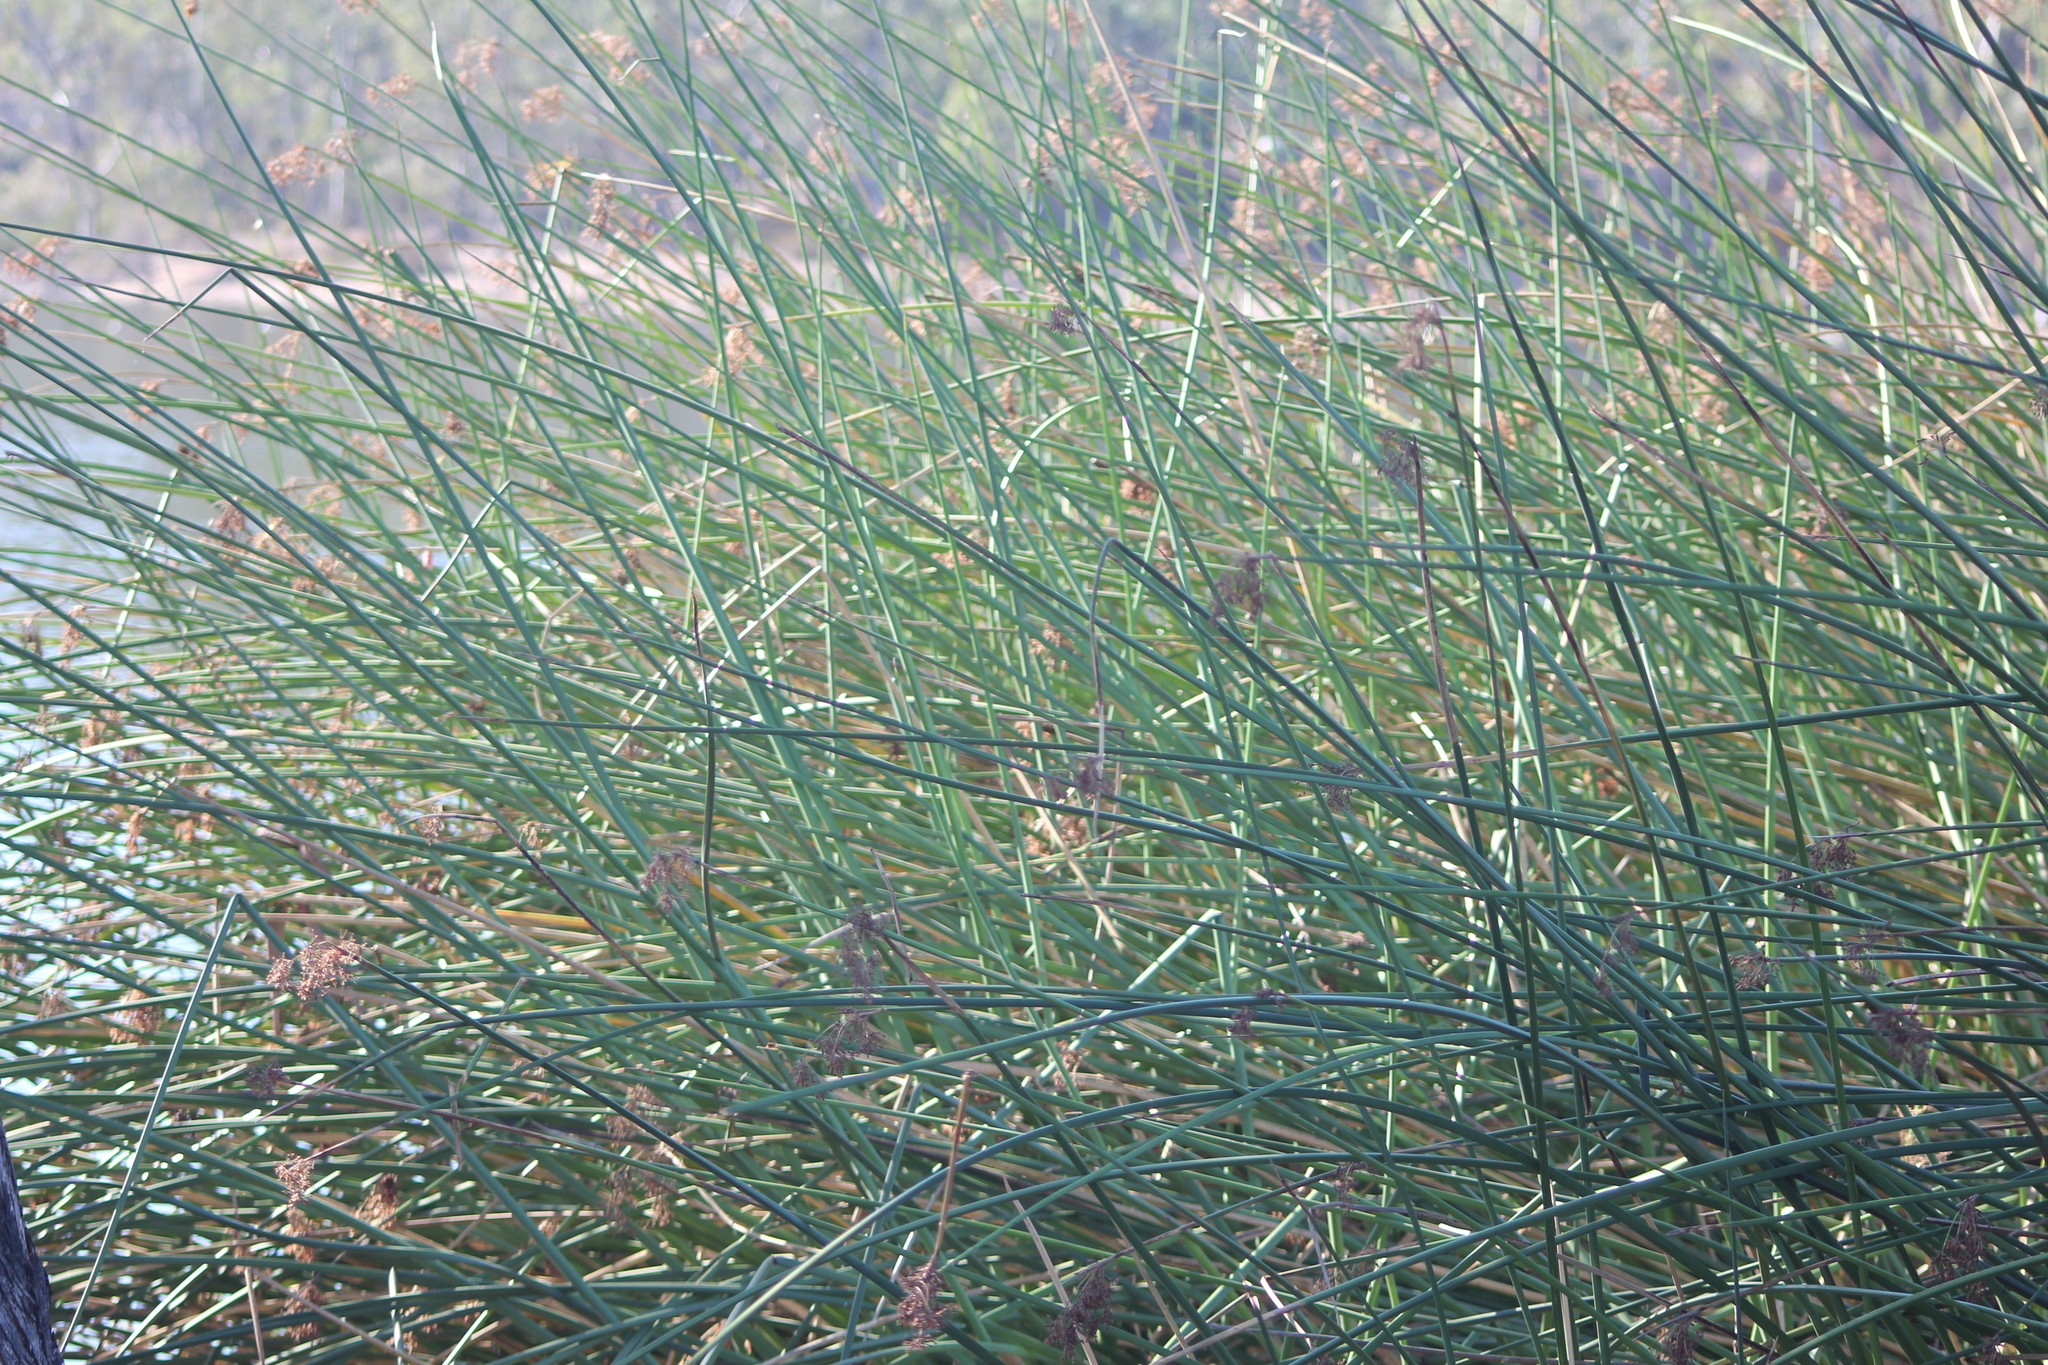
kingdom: Plantae
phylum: Tracheophyta
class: Liliopsida
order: Poales
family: Cyperaceae
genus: Schoenoplectus
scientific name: Schoenoplectus californicus
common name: California bulrush
